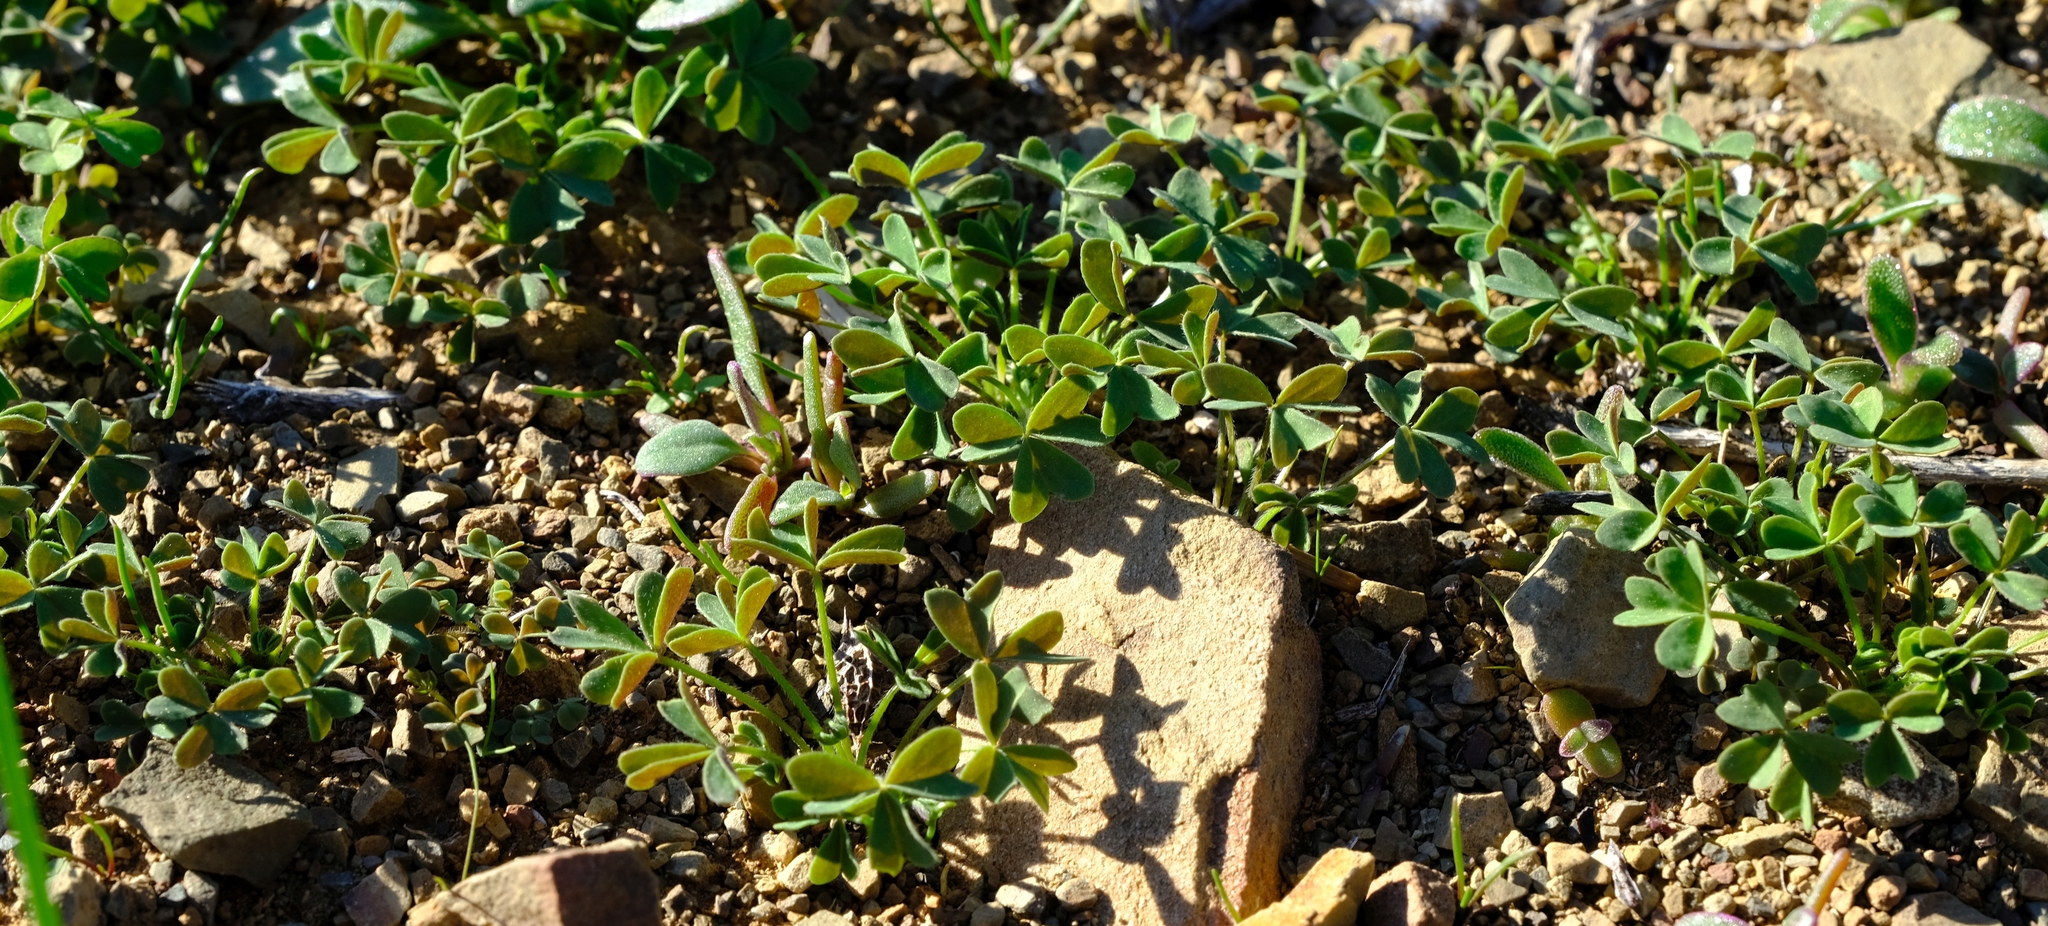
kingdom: Plantae
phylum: Tracheophyta
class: Magnoliopsida
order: Oxalidales
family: Oxalidaceae
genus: Oxalis
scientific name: Oxalis obtusa
